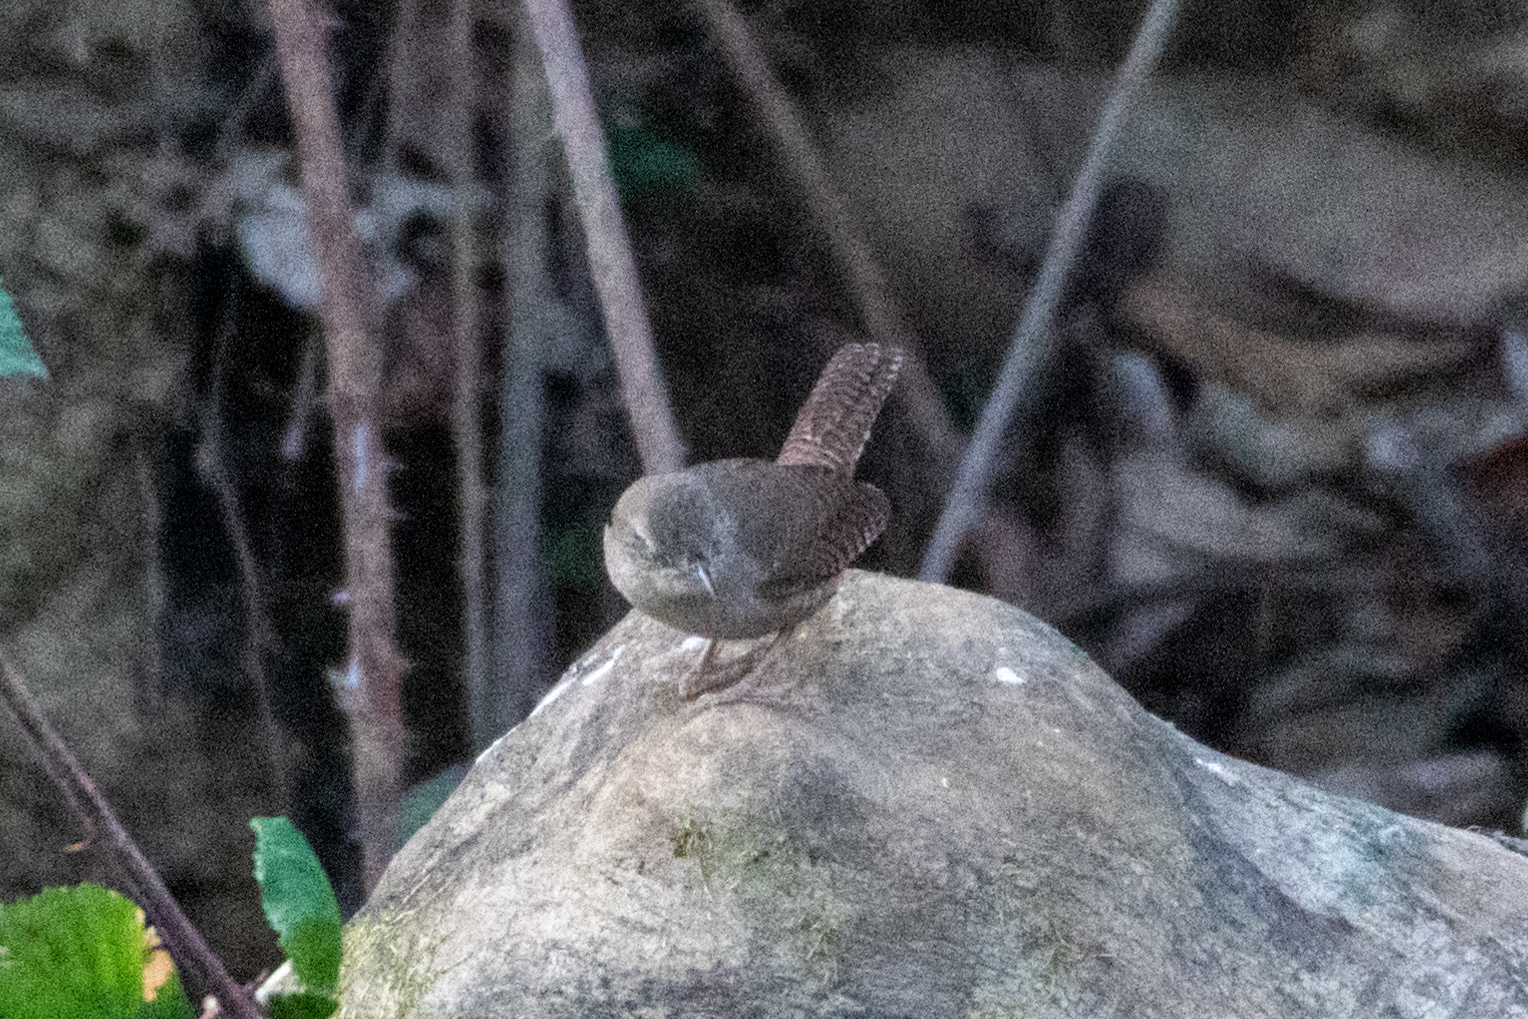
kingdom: Animalia
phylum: Chordata
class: Aves
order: Passeriformes
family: Troglodytidae
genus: Troglodytes
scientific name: Troglodytes aedon
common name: House wren
